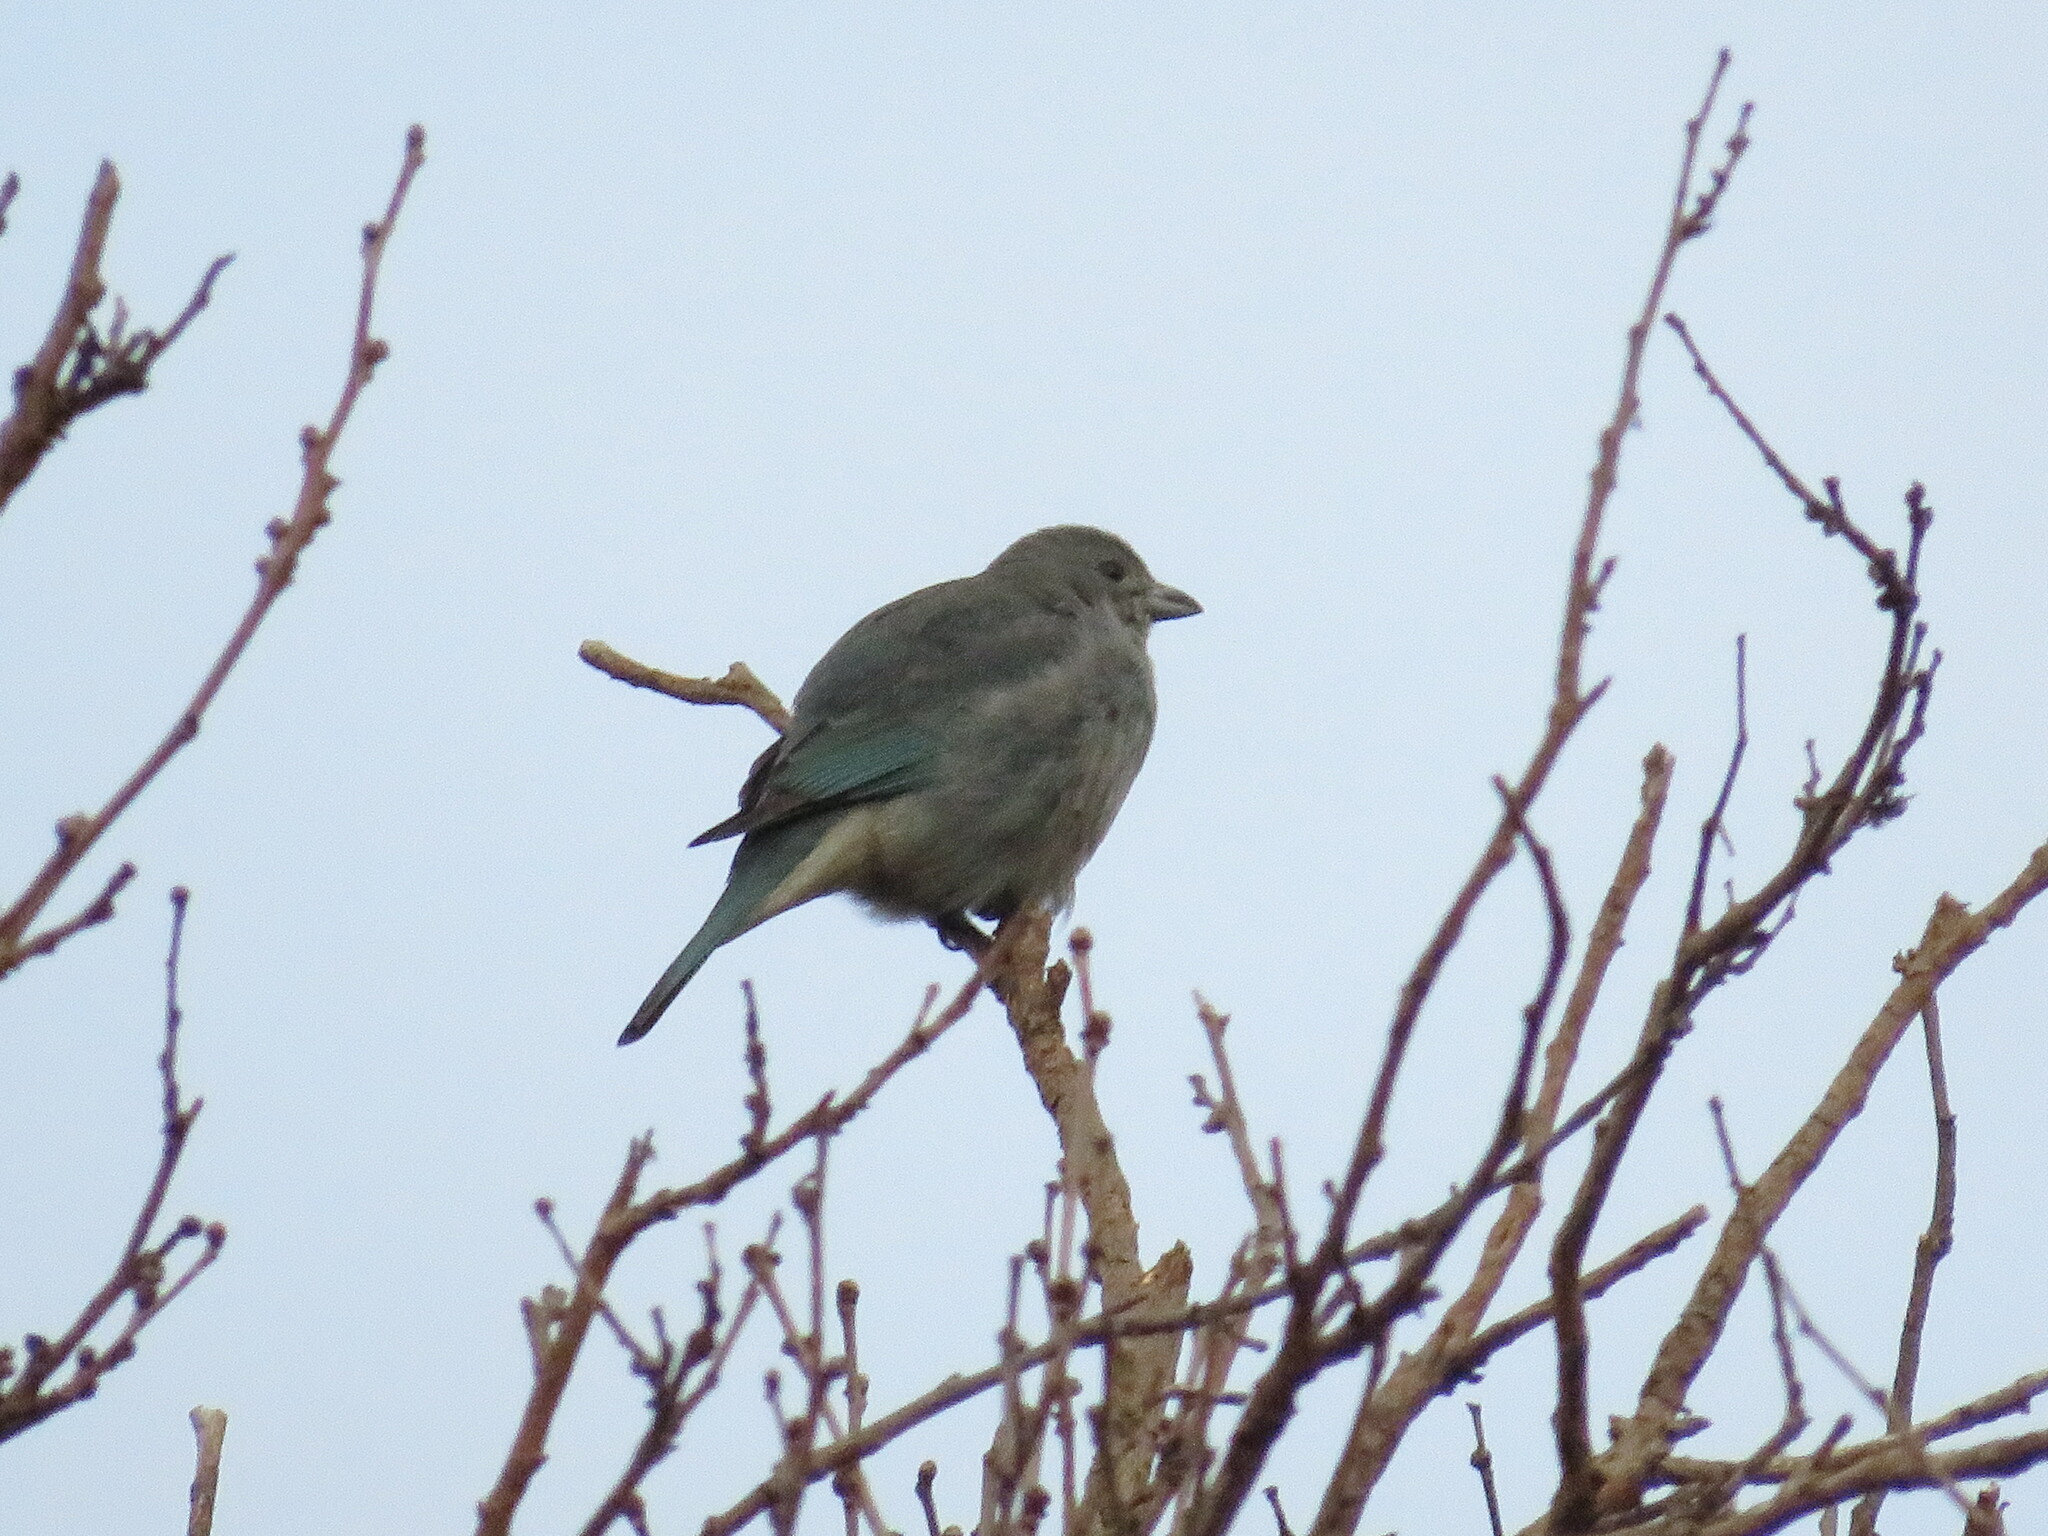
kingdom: Animalia
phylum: Chordata
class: Aves
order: Passeriformes
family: Thraupidae
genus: Thraupis
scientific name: Thraupis sayaca
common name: Sayaca tanager
